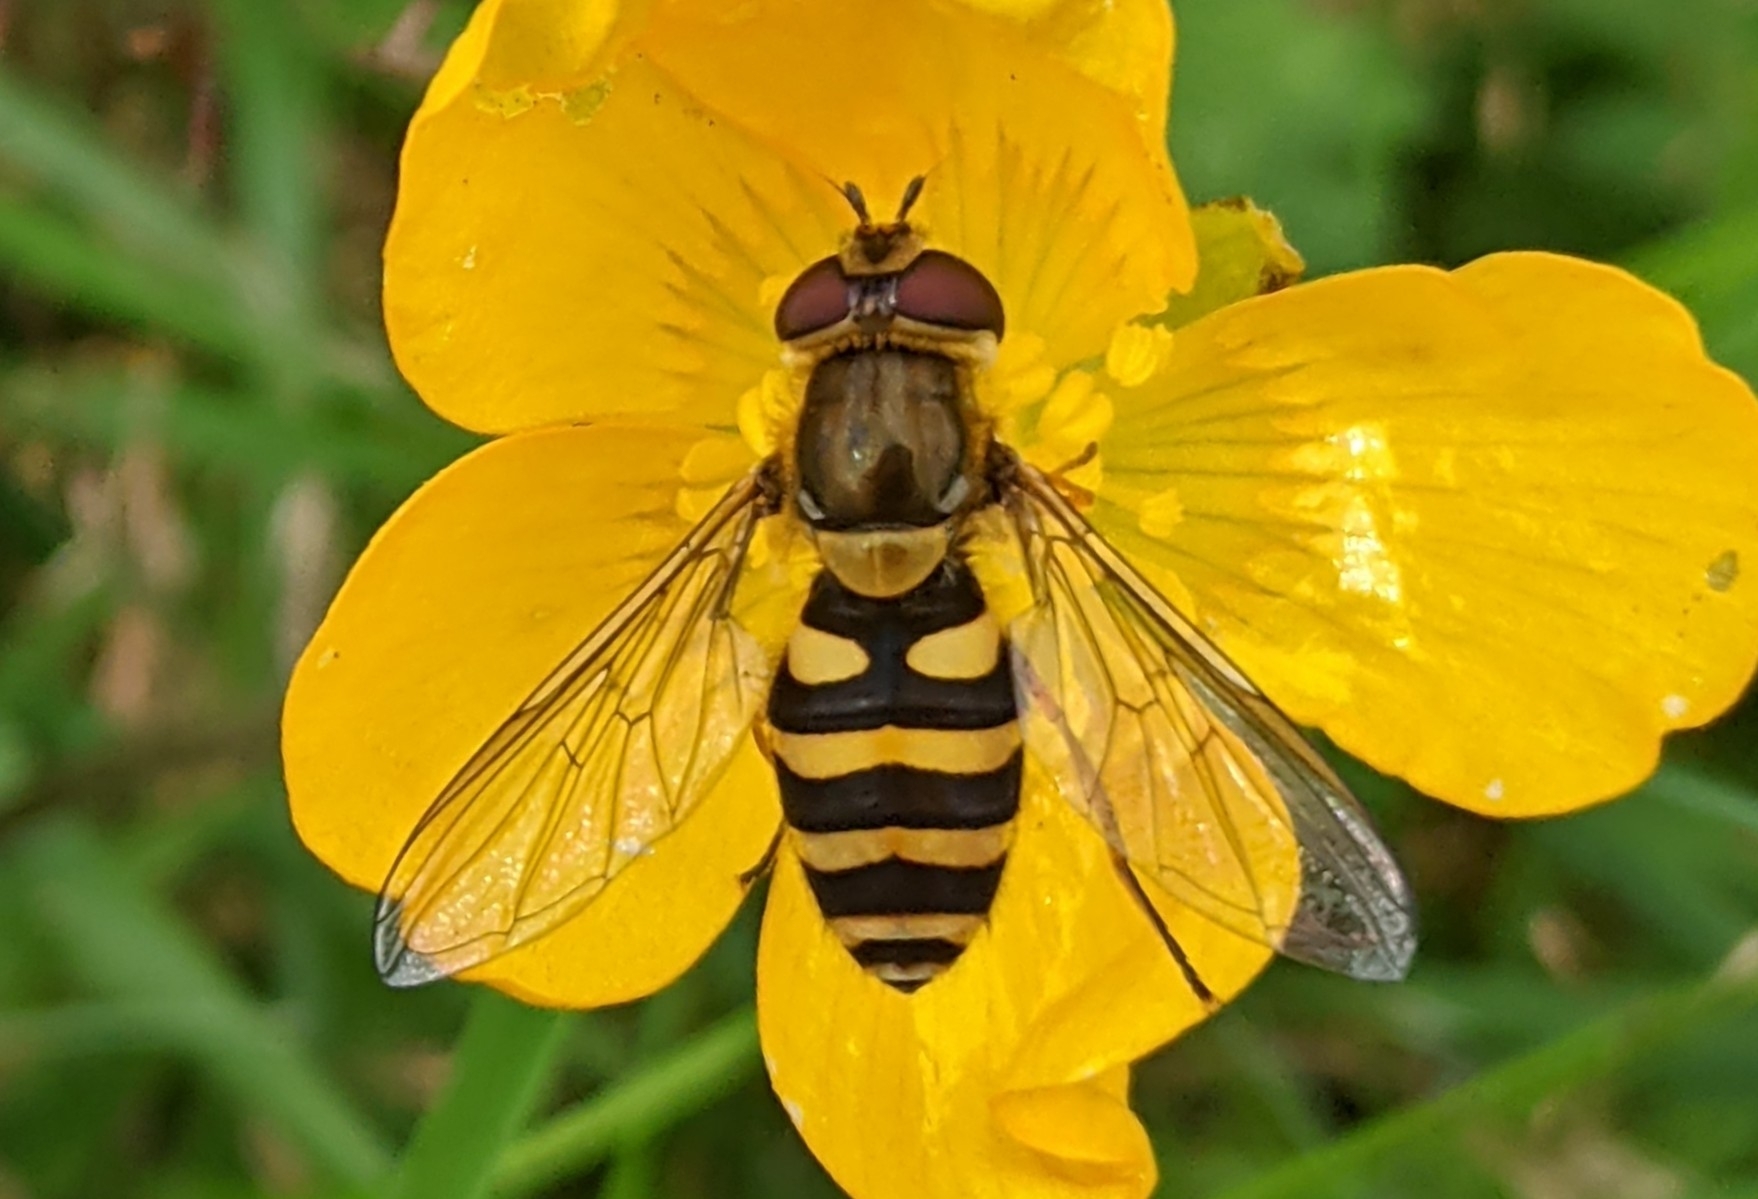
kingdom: Animalia
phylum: Arthropoda
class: Insecta
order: Diptera
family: Syrphidae
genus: Syrphus
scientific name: Syrphus
